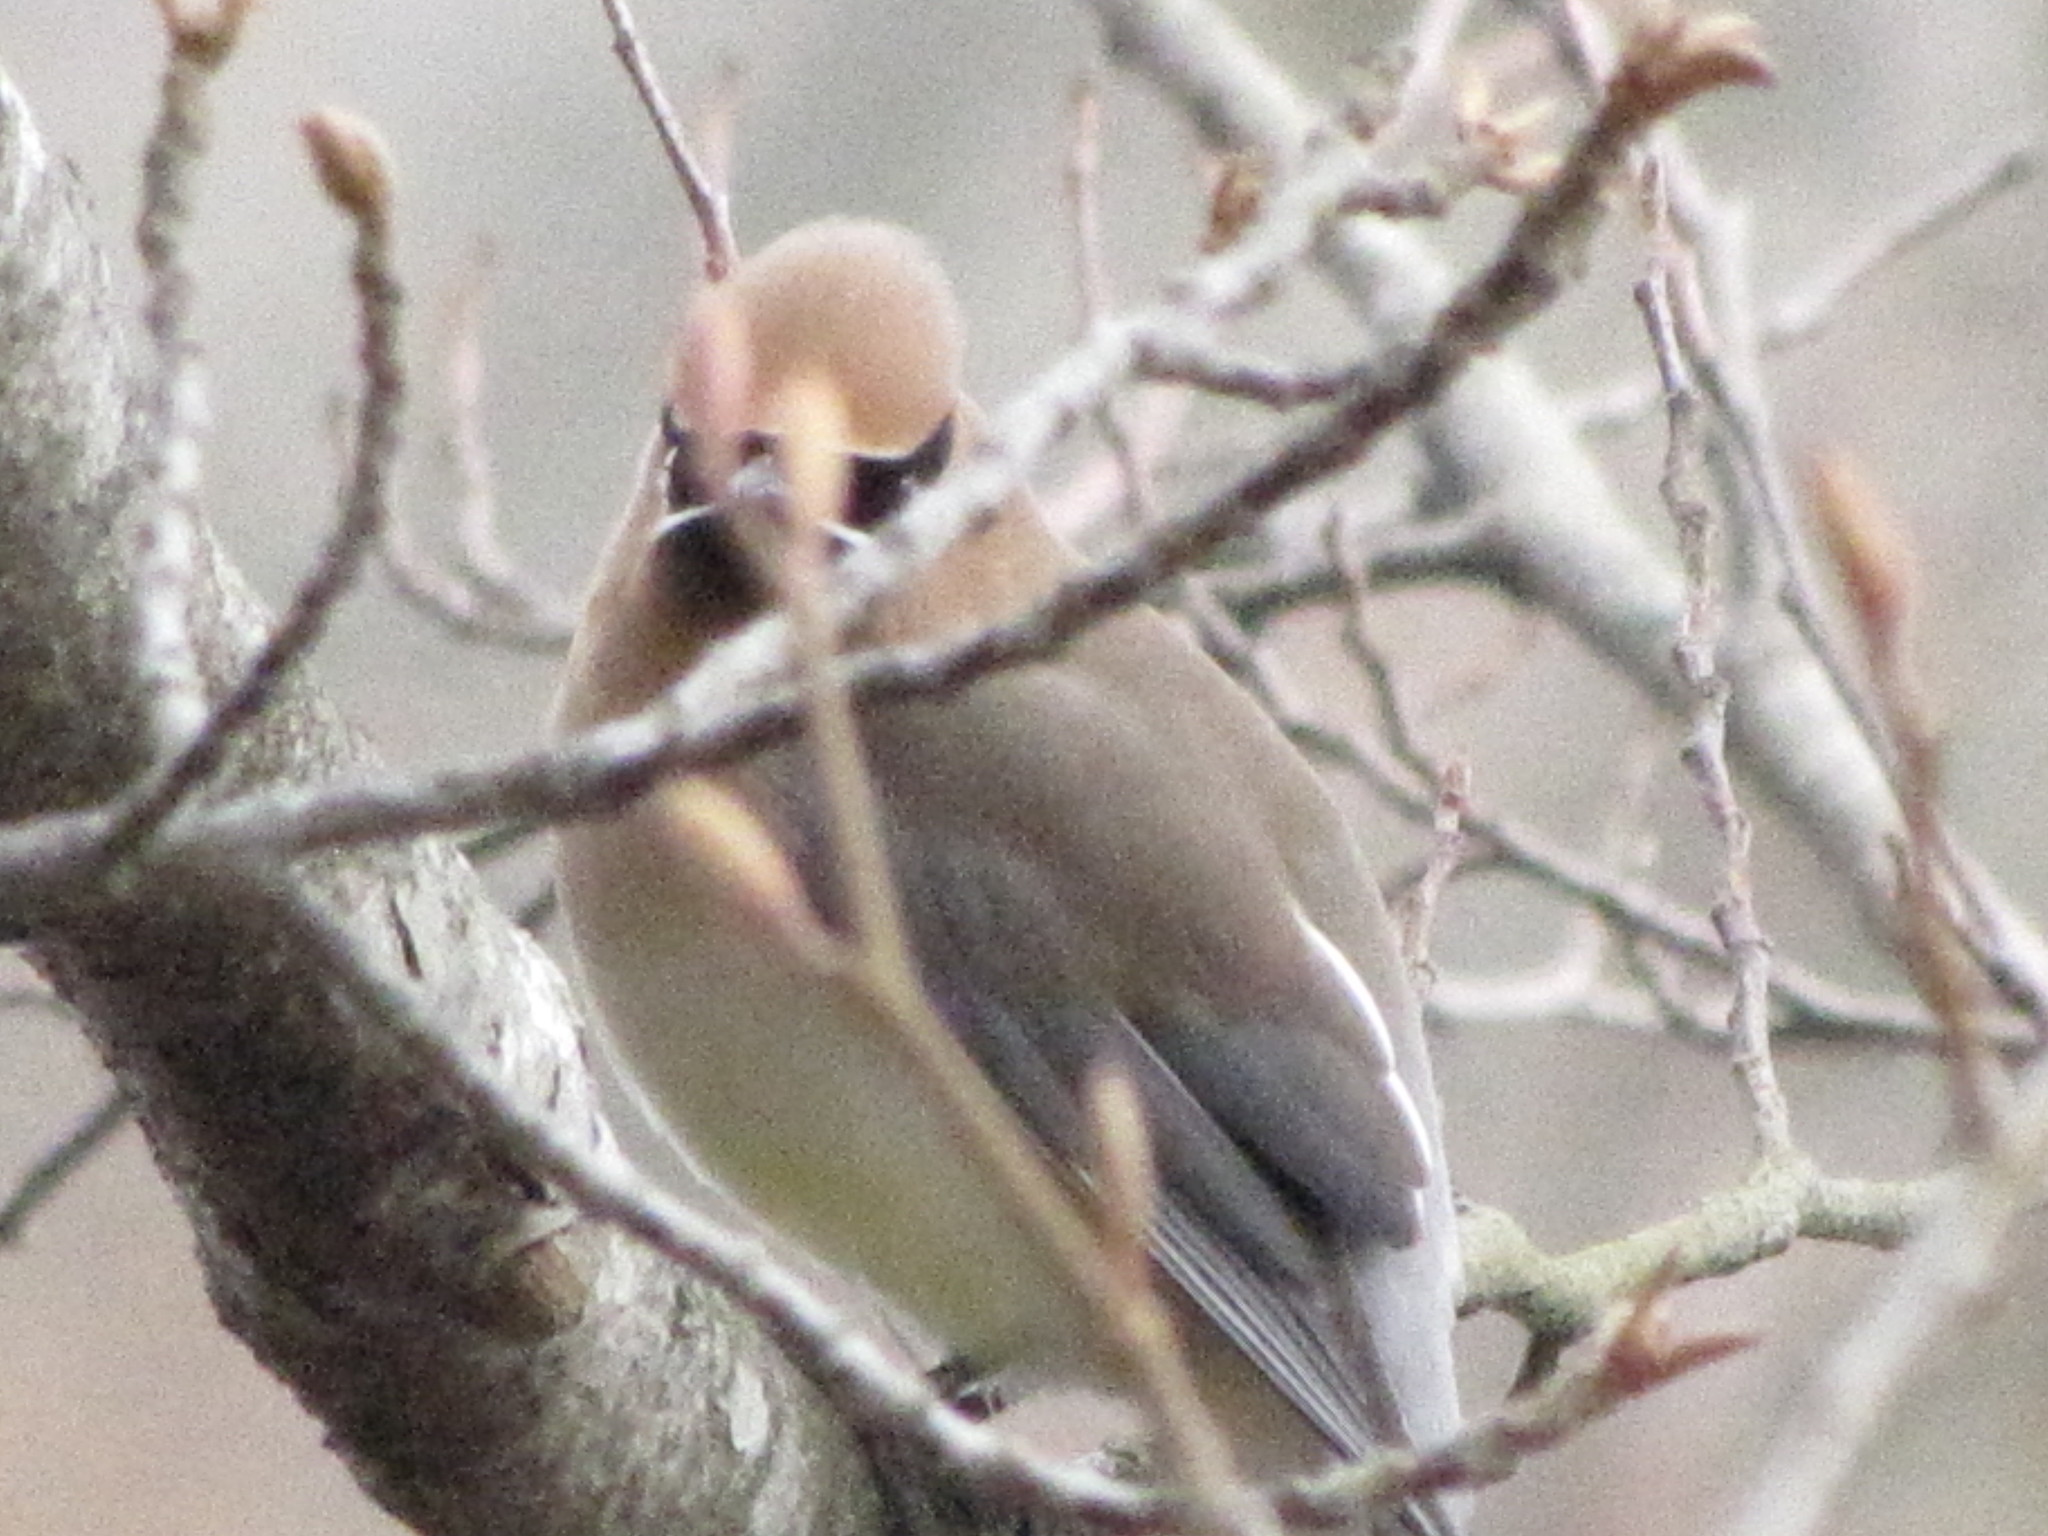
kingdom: Animalia
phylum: Chordata
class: Aves
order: Passeriformes
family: Bombycillidae
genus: Bombycilla
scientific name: Bombycilla cedrorum
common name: Cedar waxwing
